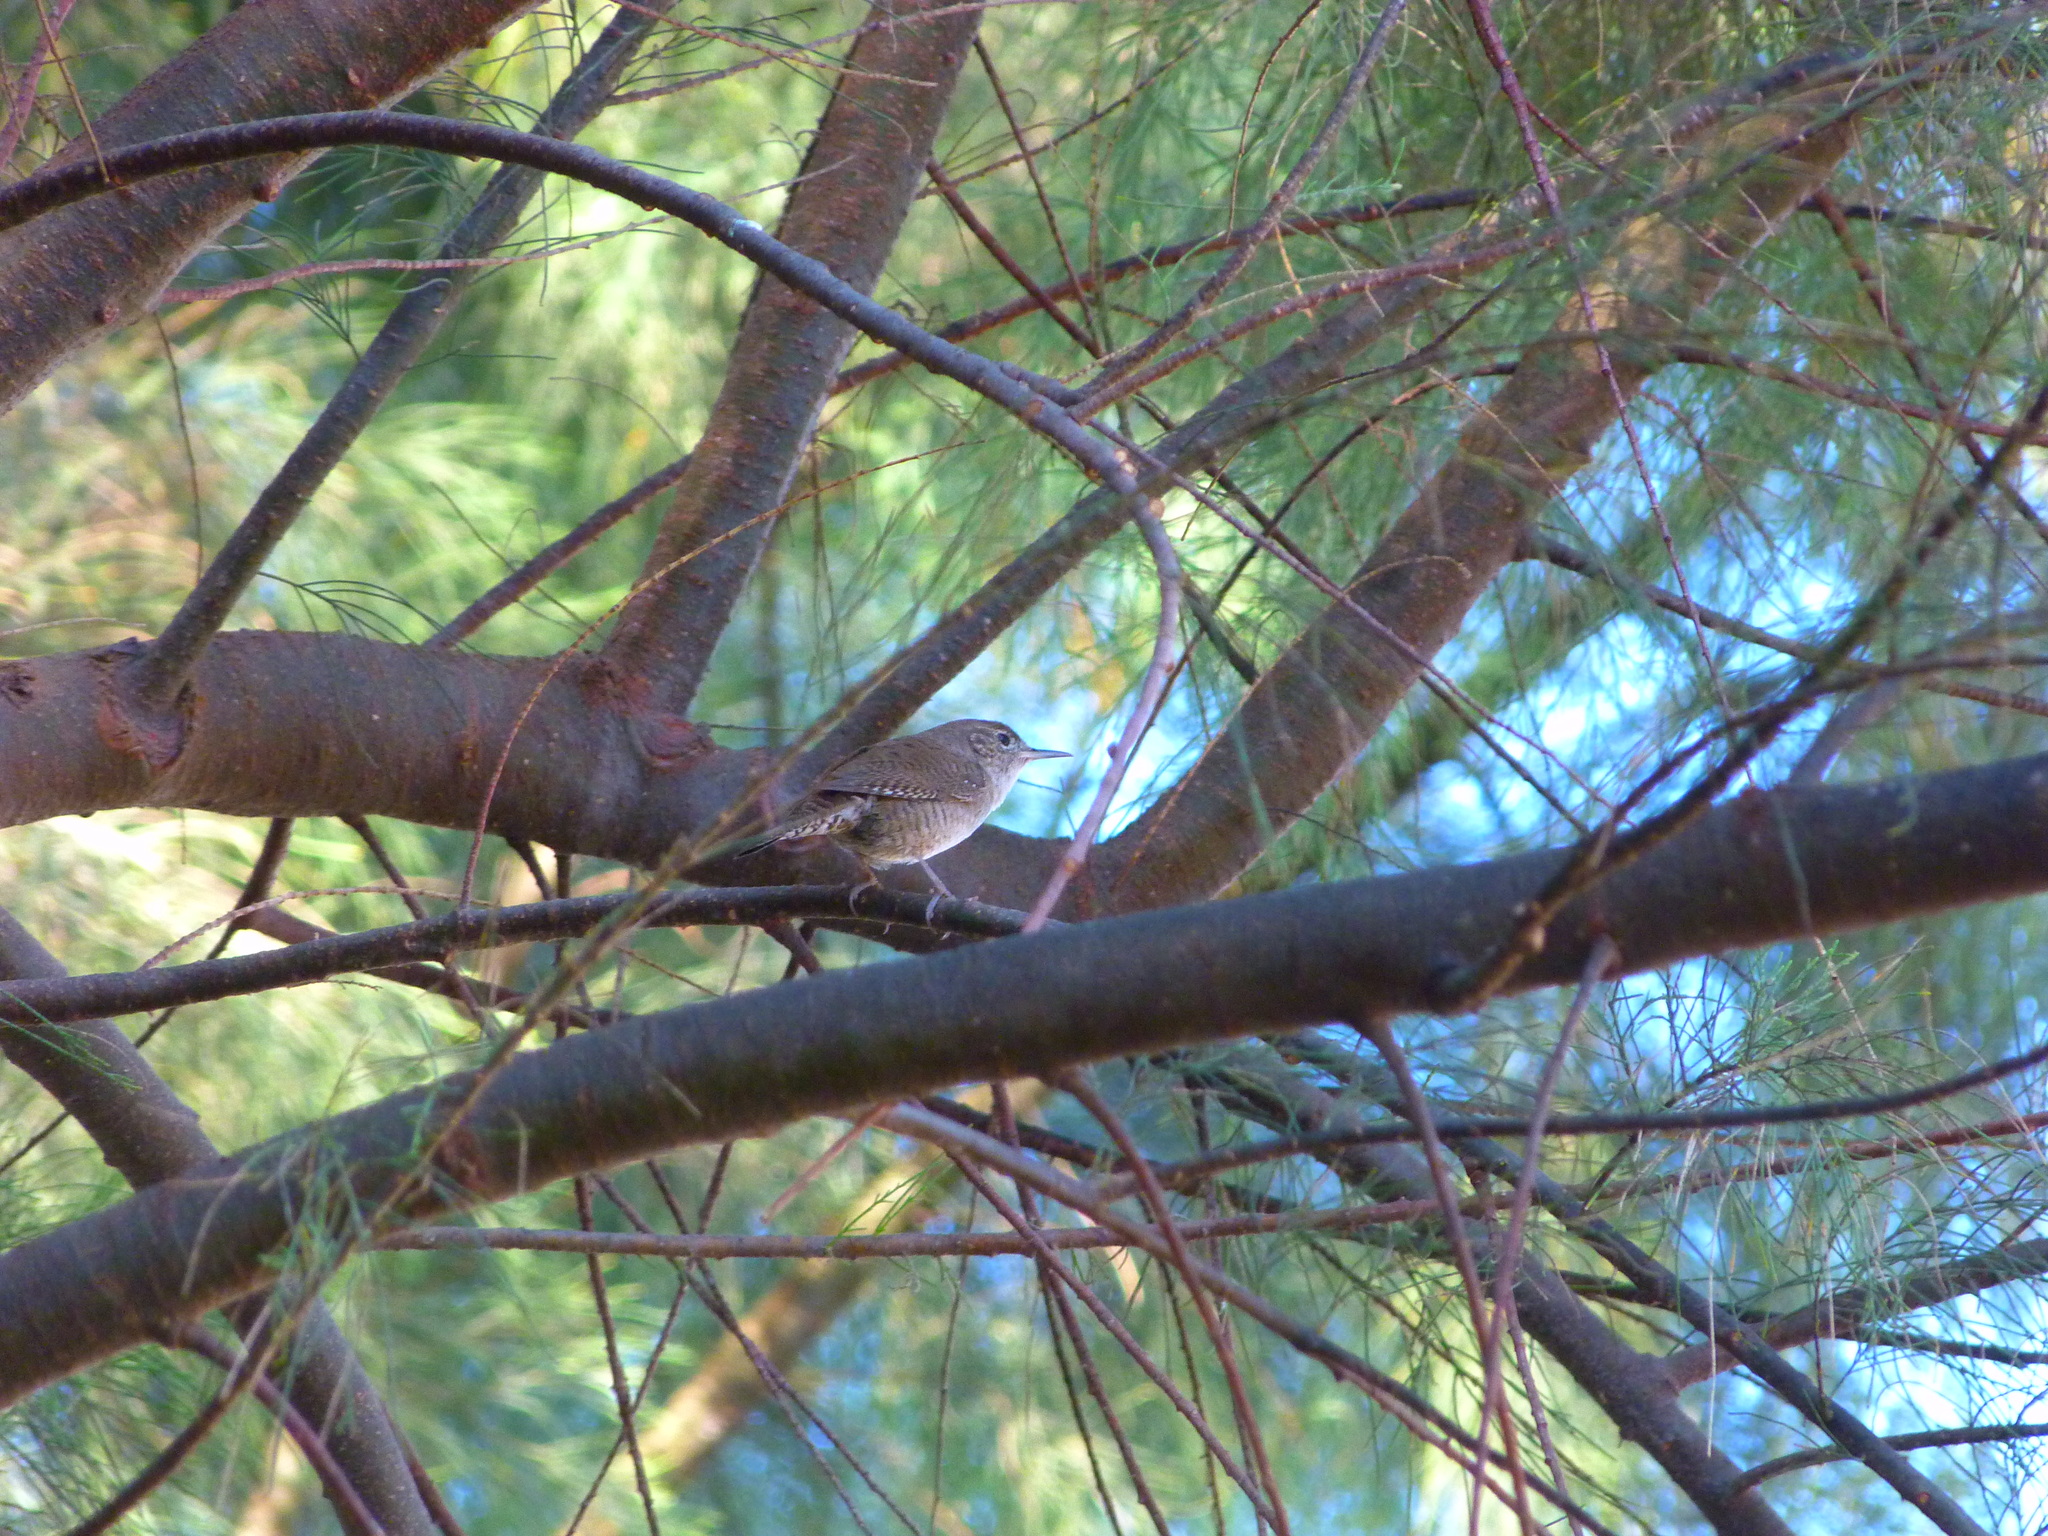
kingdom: Animalia
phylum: Chordata
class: Aves
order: Passeriformes
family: Troglodytidae
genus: Troglodytes
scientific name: Troglodytes aedon
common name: House wren
